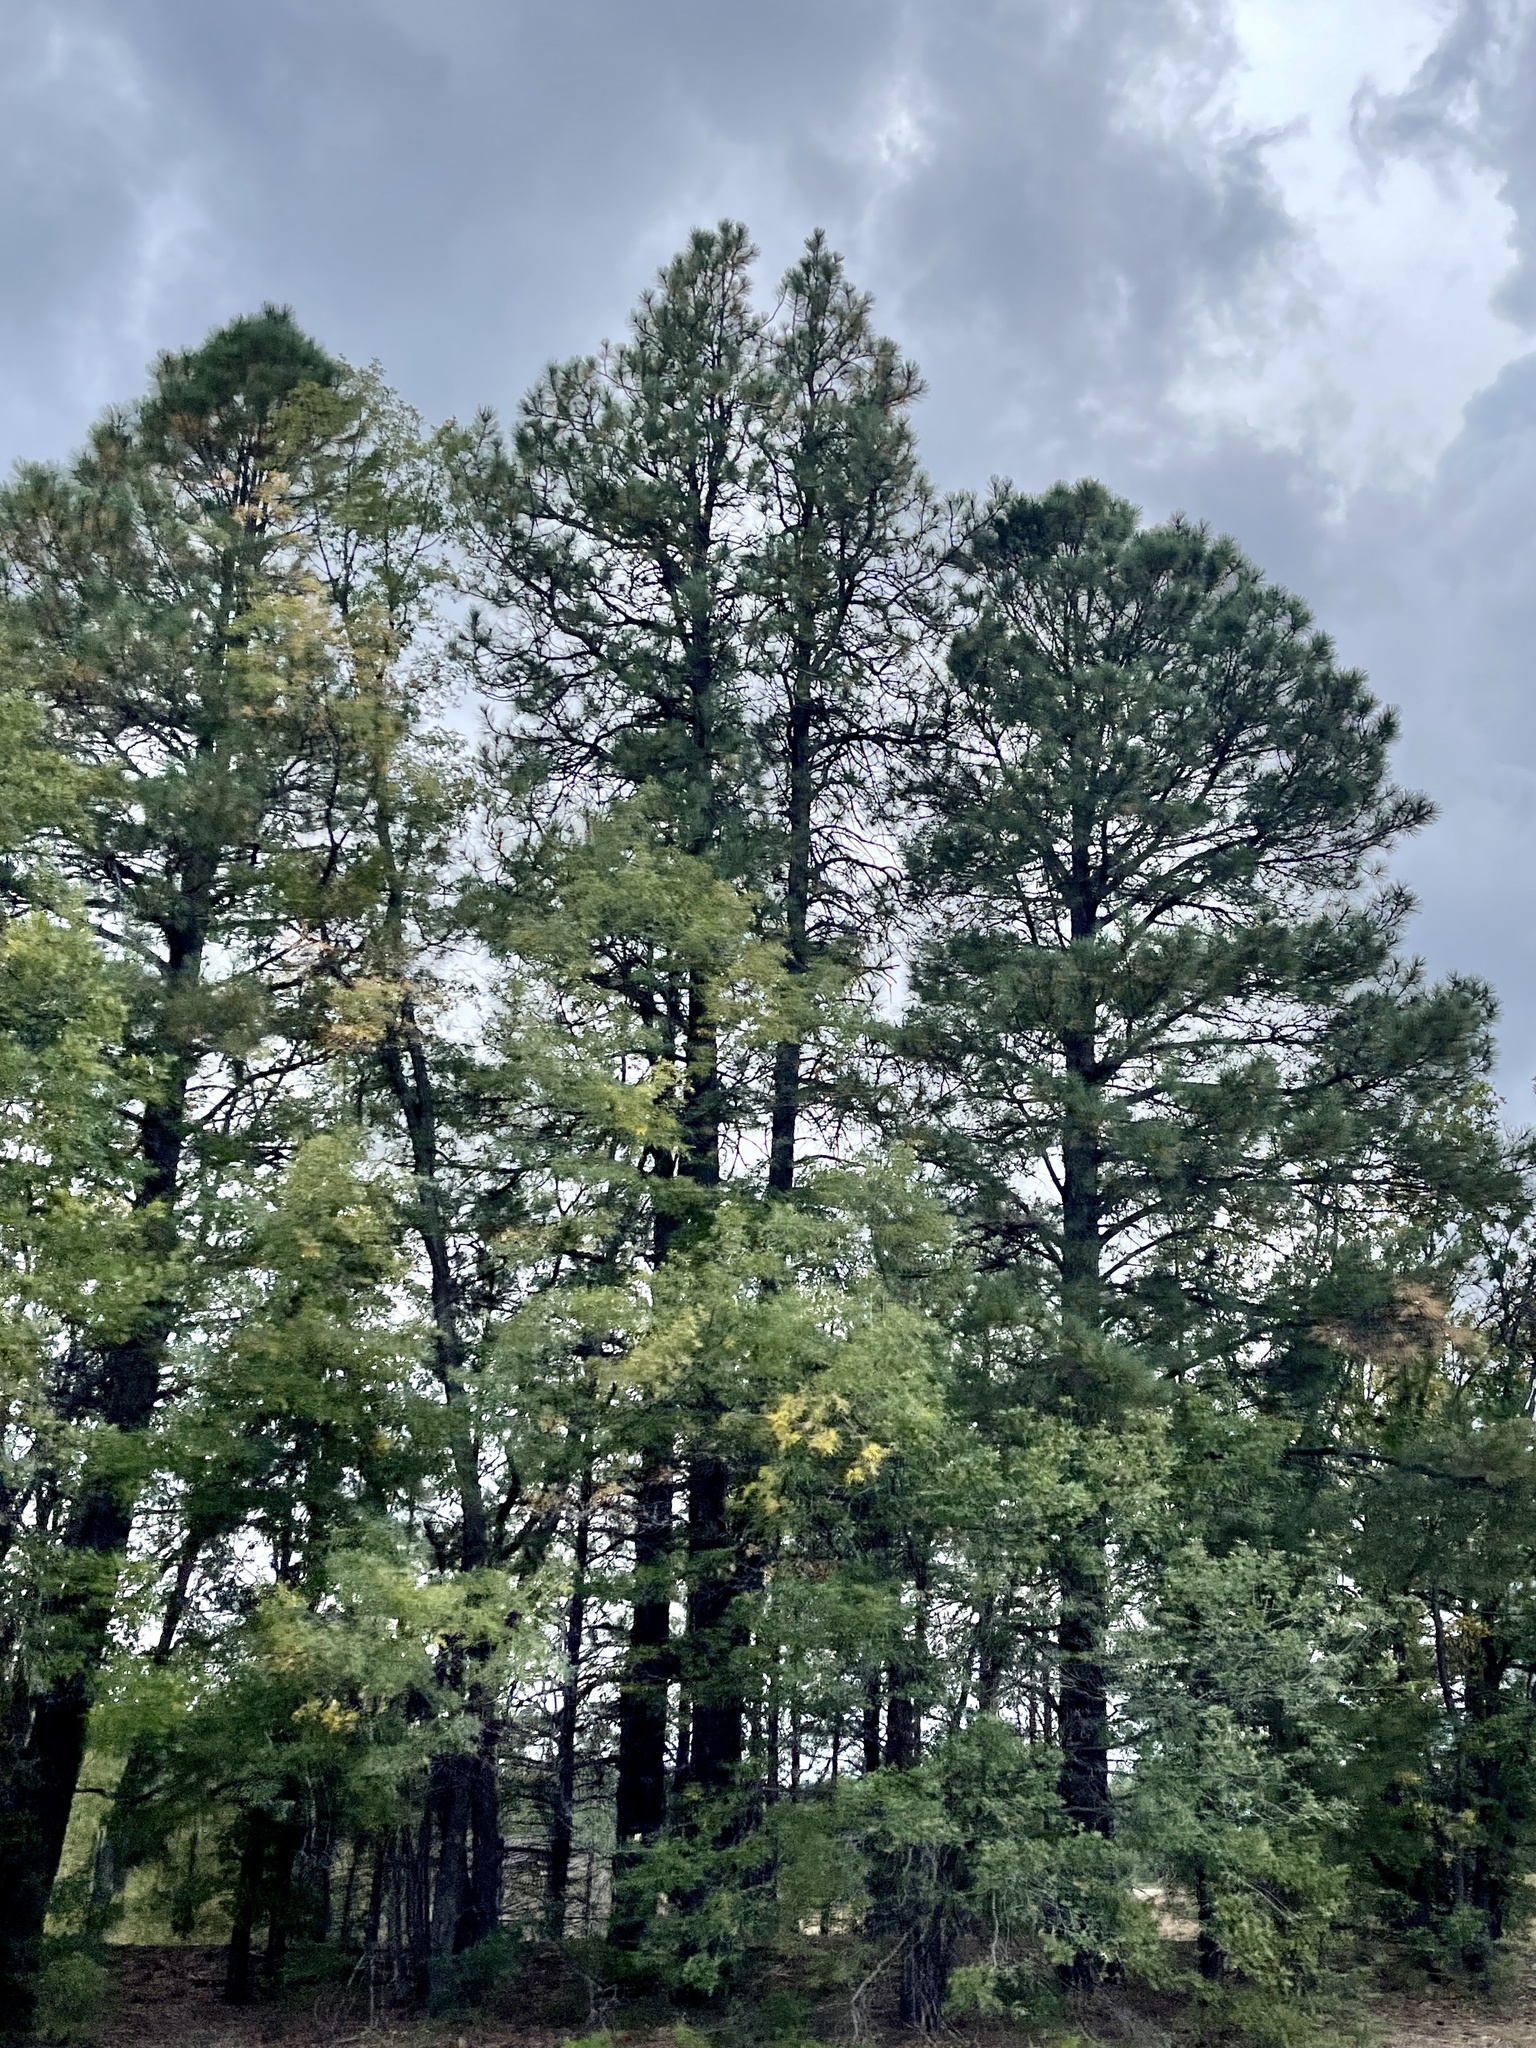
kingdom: Plantae
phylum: Tracheophyta
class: Pinopsida
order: Pinales
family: Pinaceae
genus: Pinus
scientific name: Pinus ponderosa
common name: Western yellow-pine
